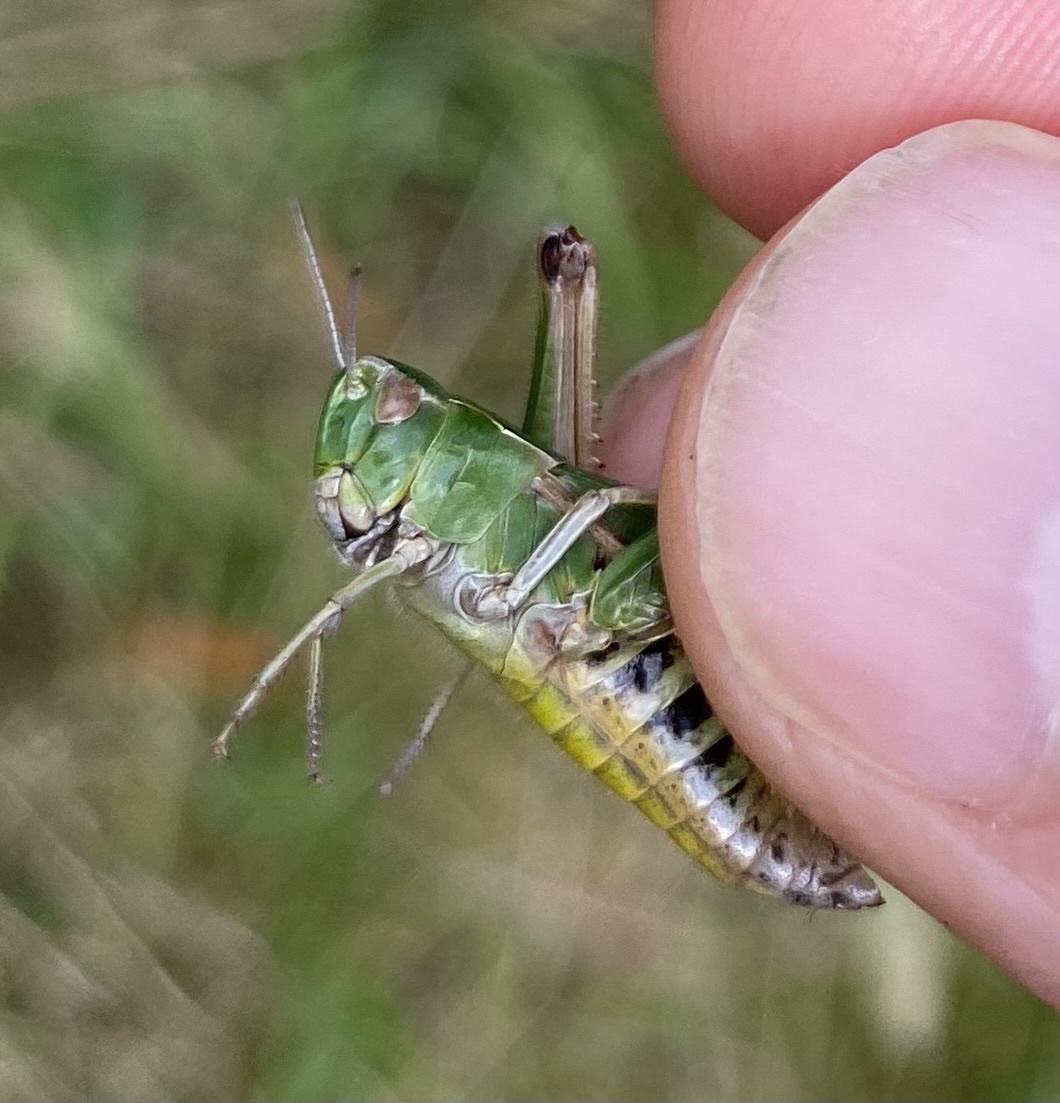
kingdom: Animalia
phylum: Arthropoda
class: Insecta
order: Orthoptera
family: Acrididae
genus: Omocestus
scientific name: Omocestus viridulus
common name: Common green grasshopper
